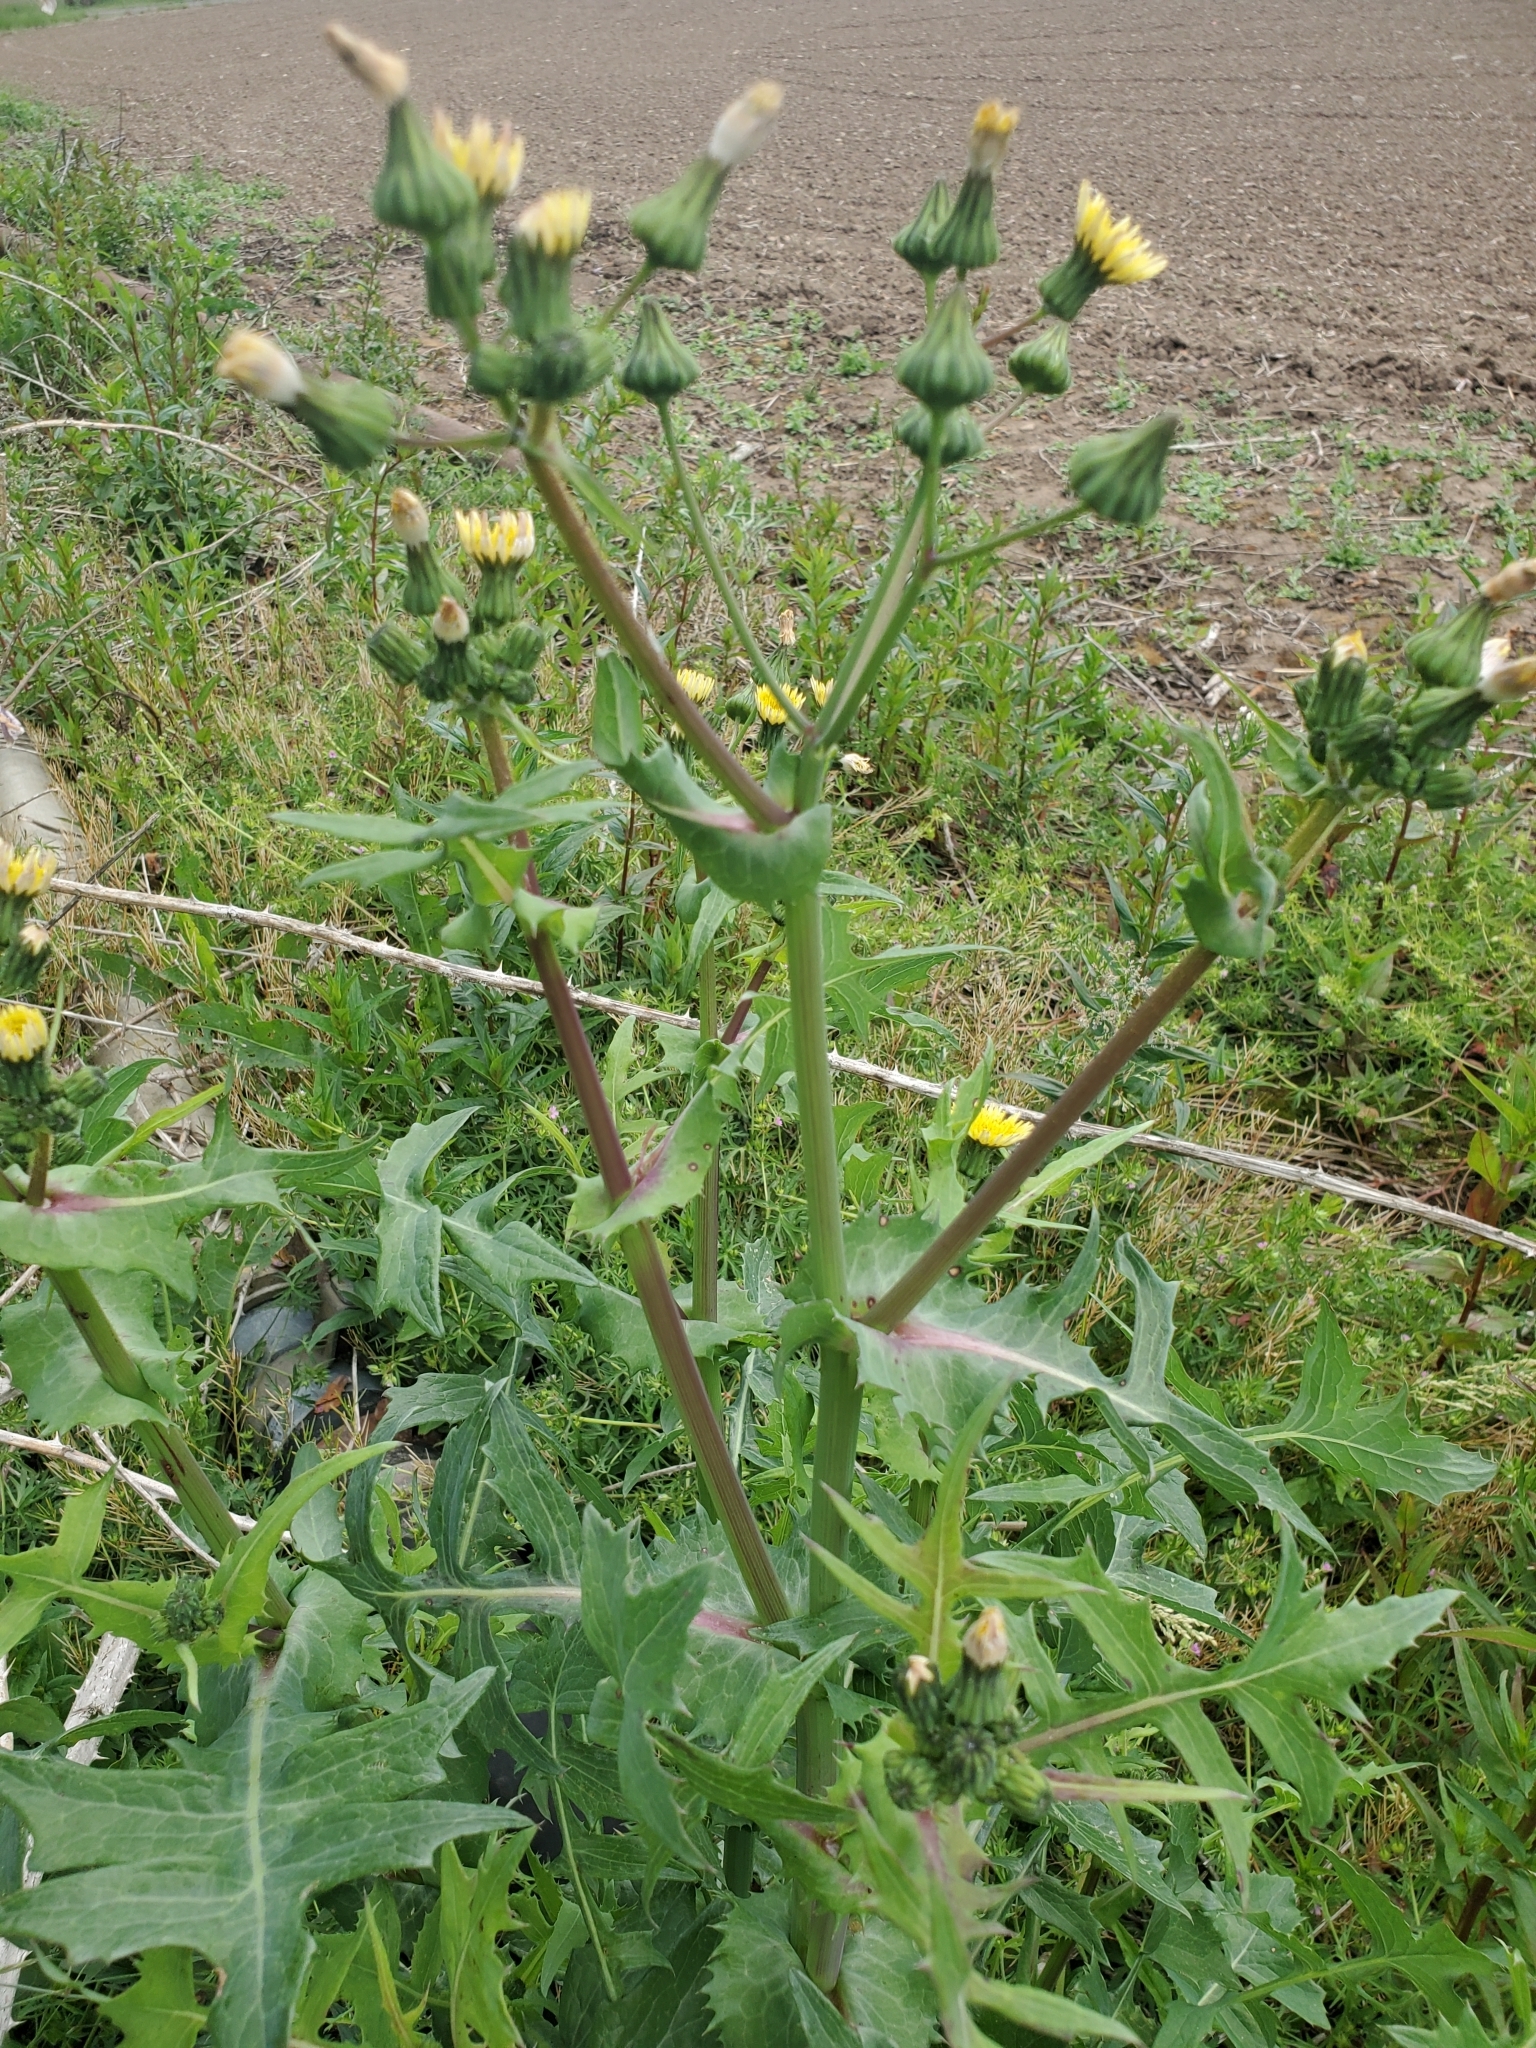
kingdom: Plantae
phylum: Tracheophyta
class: Magnoliopsida
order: Asterales
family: Asteraceae
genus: Sonchus
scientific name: Sonchus oleraceus
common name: Common sowthistle
